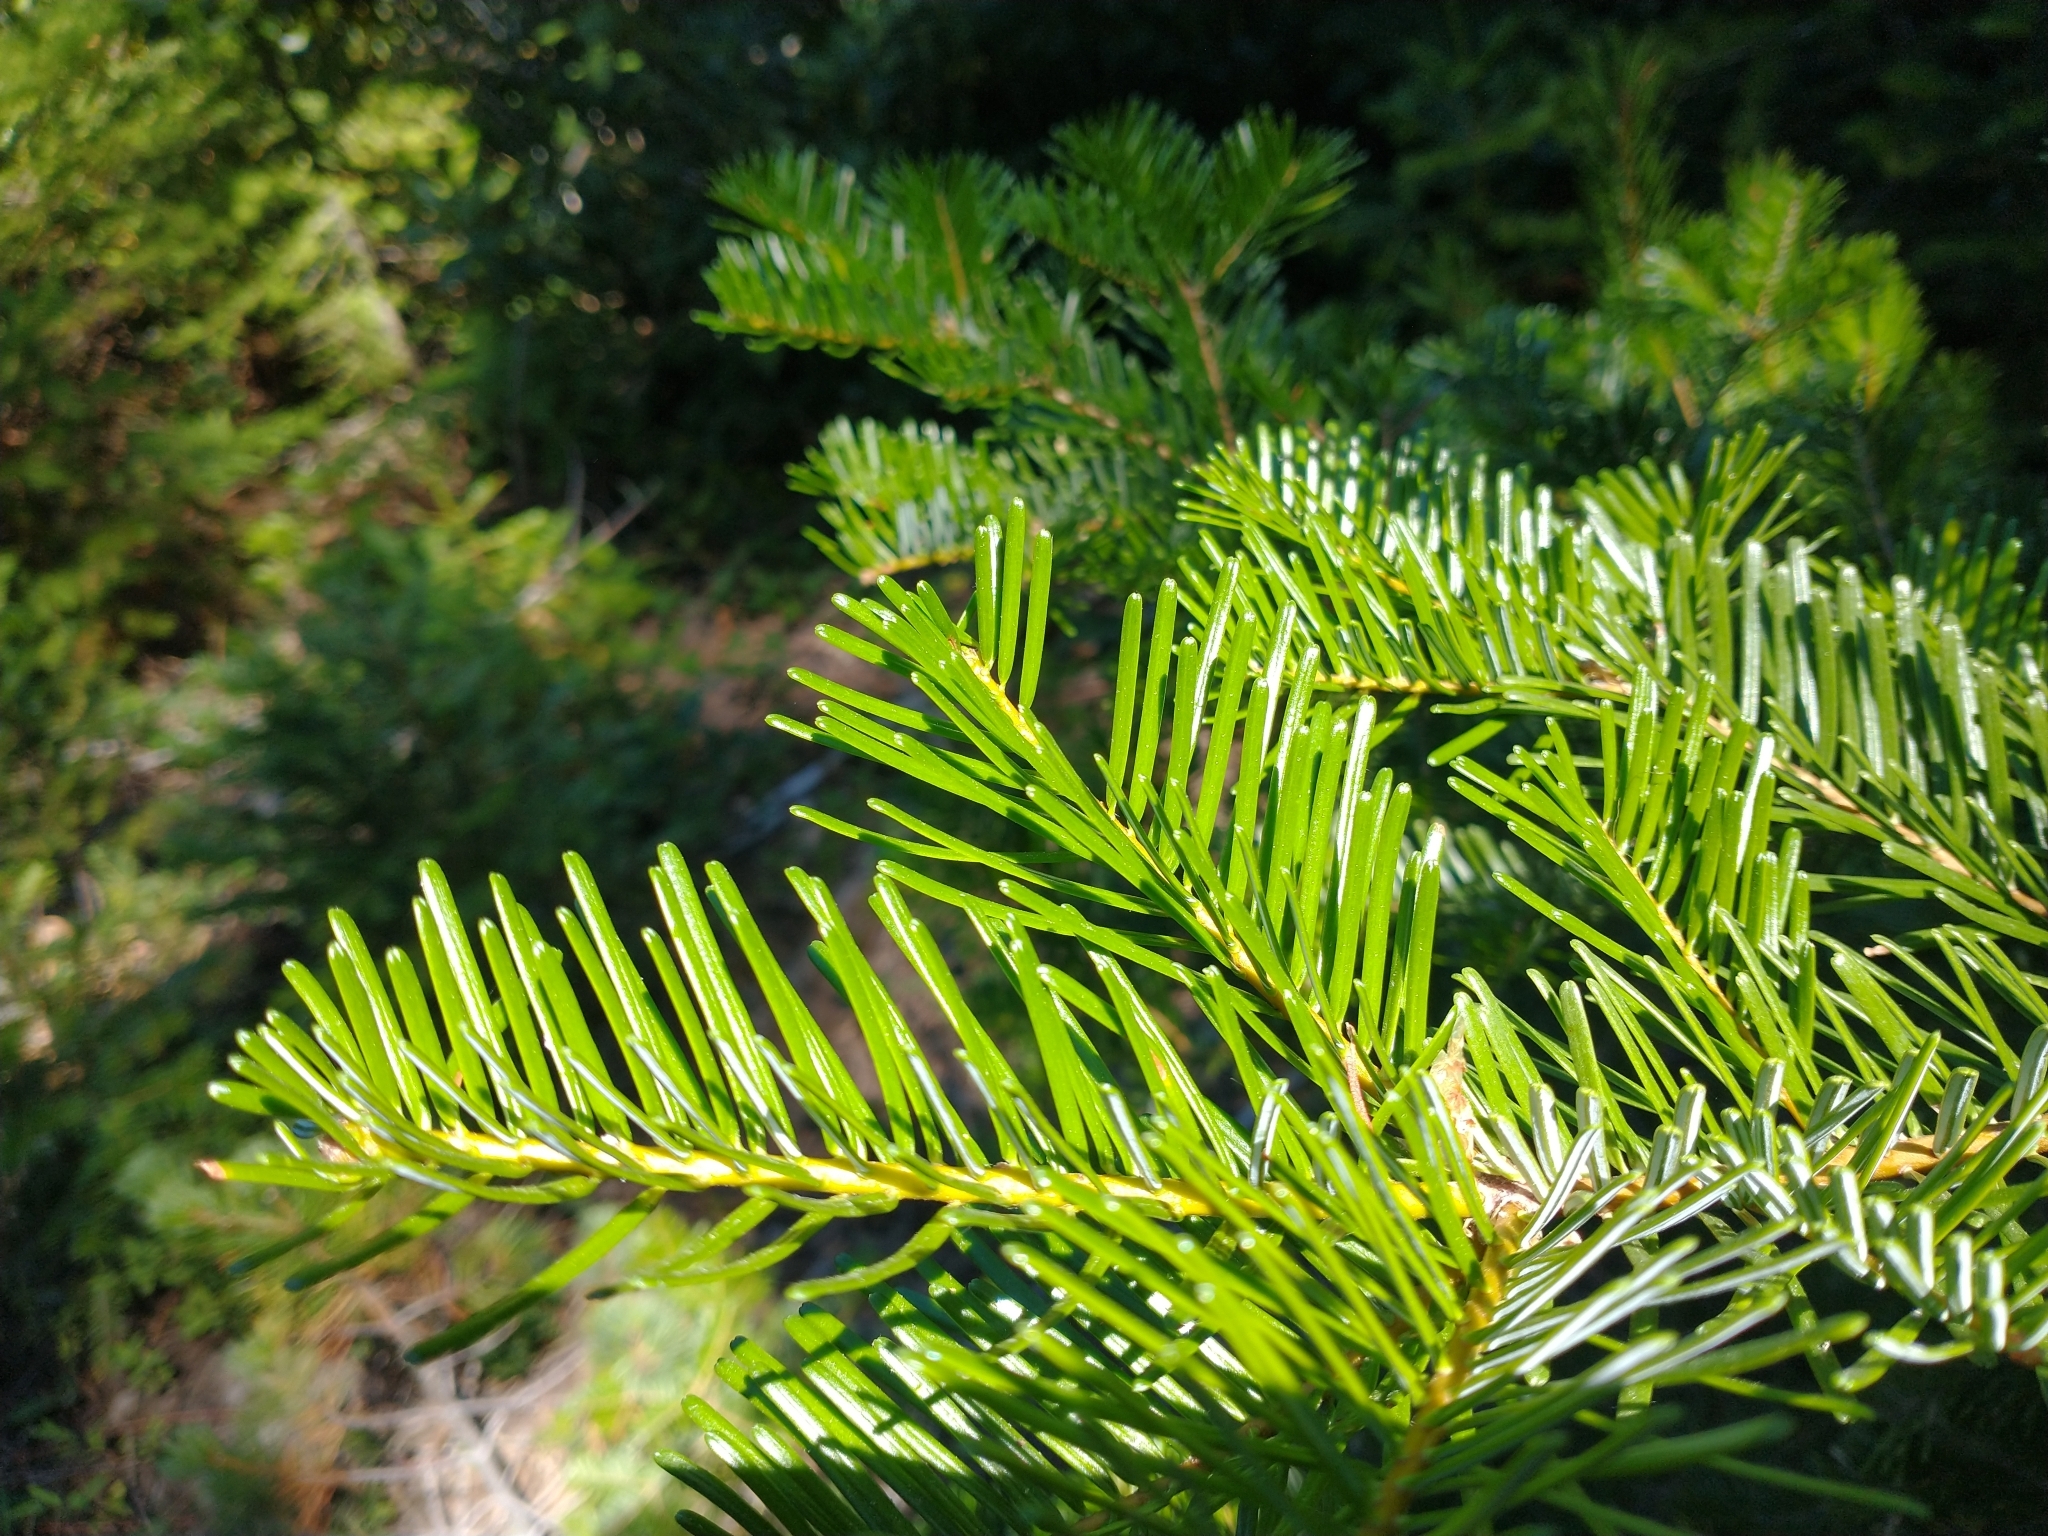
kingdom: Plantae
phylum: Tracheophyta
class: Pinopsida
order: Pinales
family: Pinaceae
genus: Abies
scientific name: Abies concolor
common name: Colorado fir
